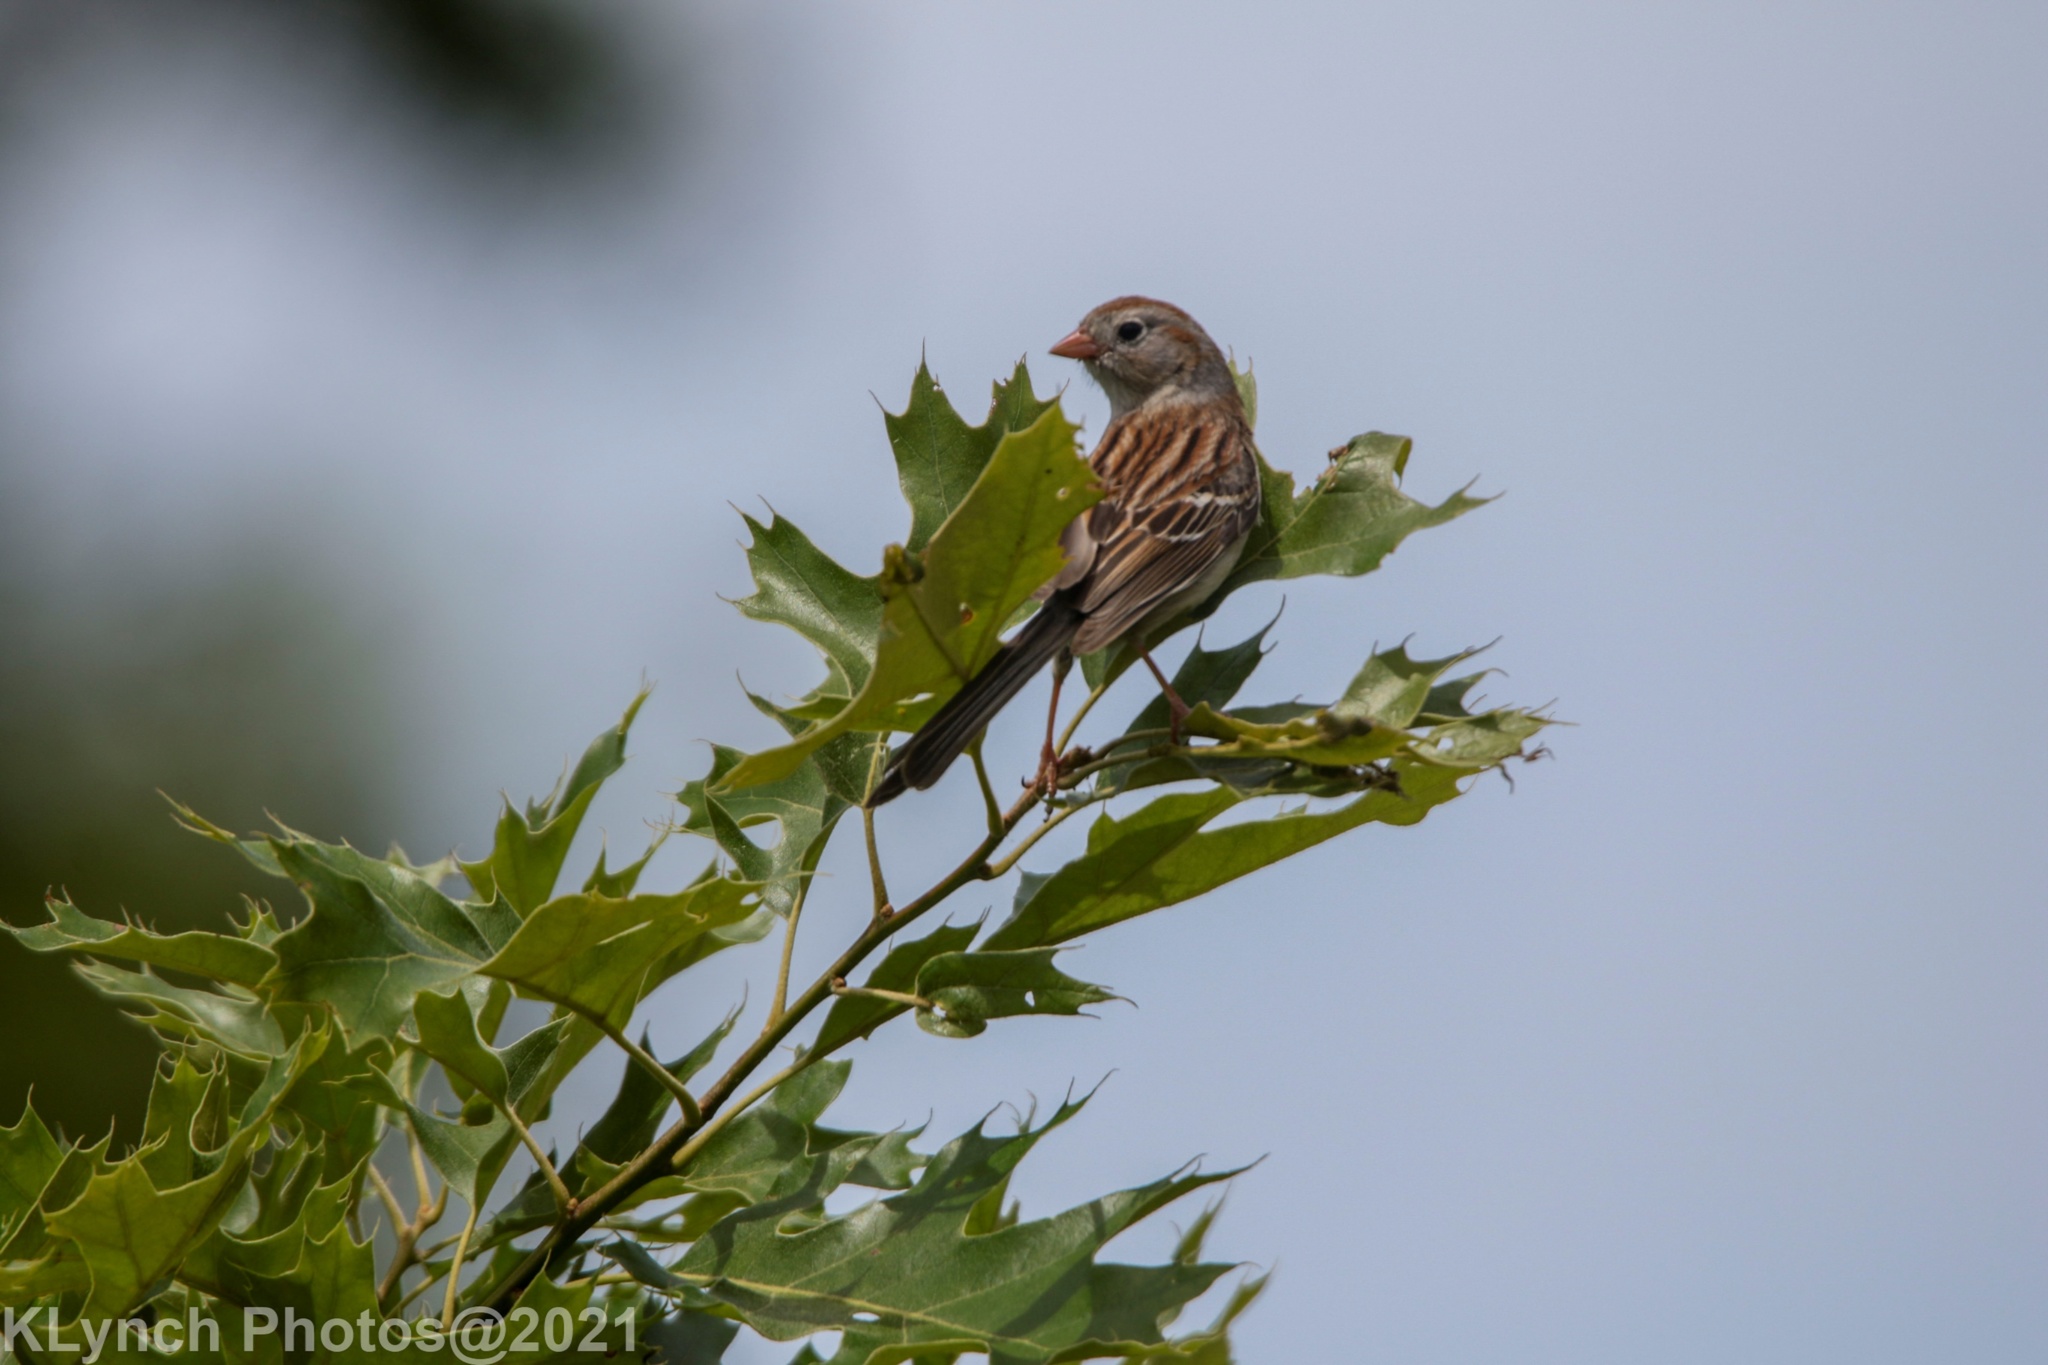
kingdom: Animalia
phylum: Chordata
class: Aves
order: Passeriformes
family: Passerellidae
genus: Spizella
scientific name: Spizella pusilla
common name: Field sparrow
